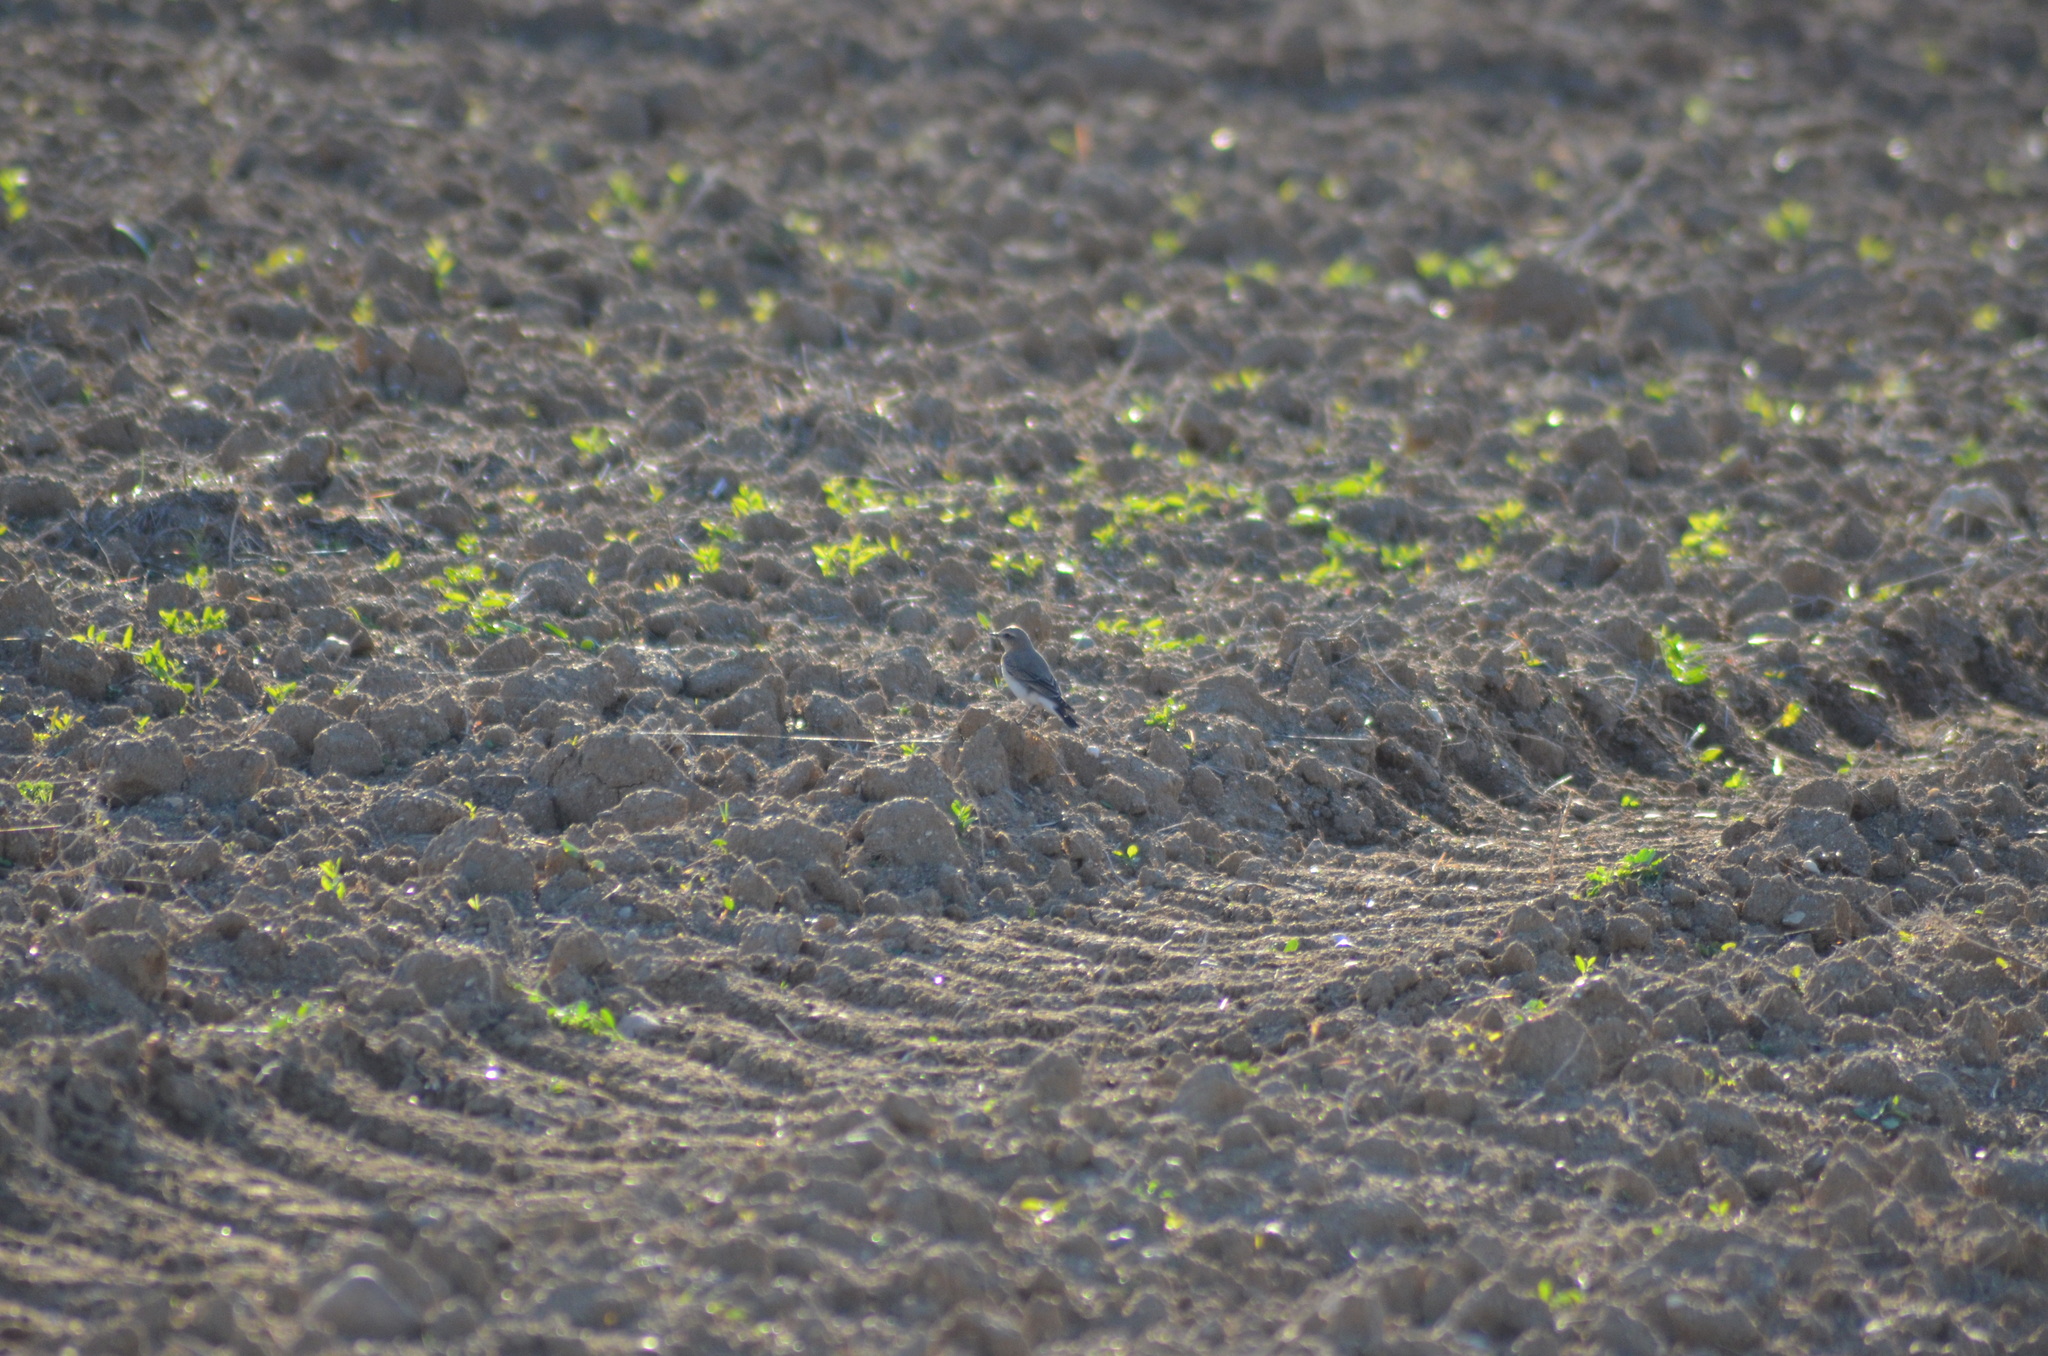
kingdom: Animalia
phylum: Chordata
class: Aves
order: Passeriformes
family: Muscicapidae
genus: Oenanthe
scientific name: Oenanthe oenanthe
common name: Northern wheatear
